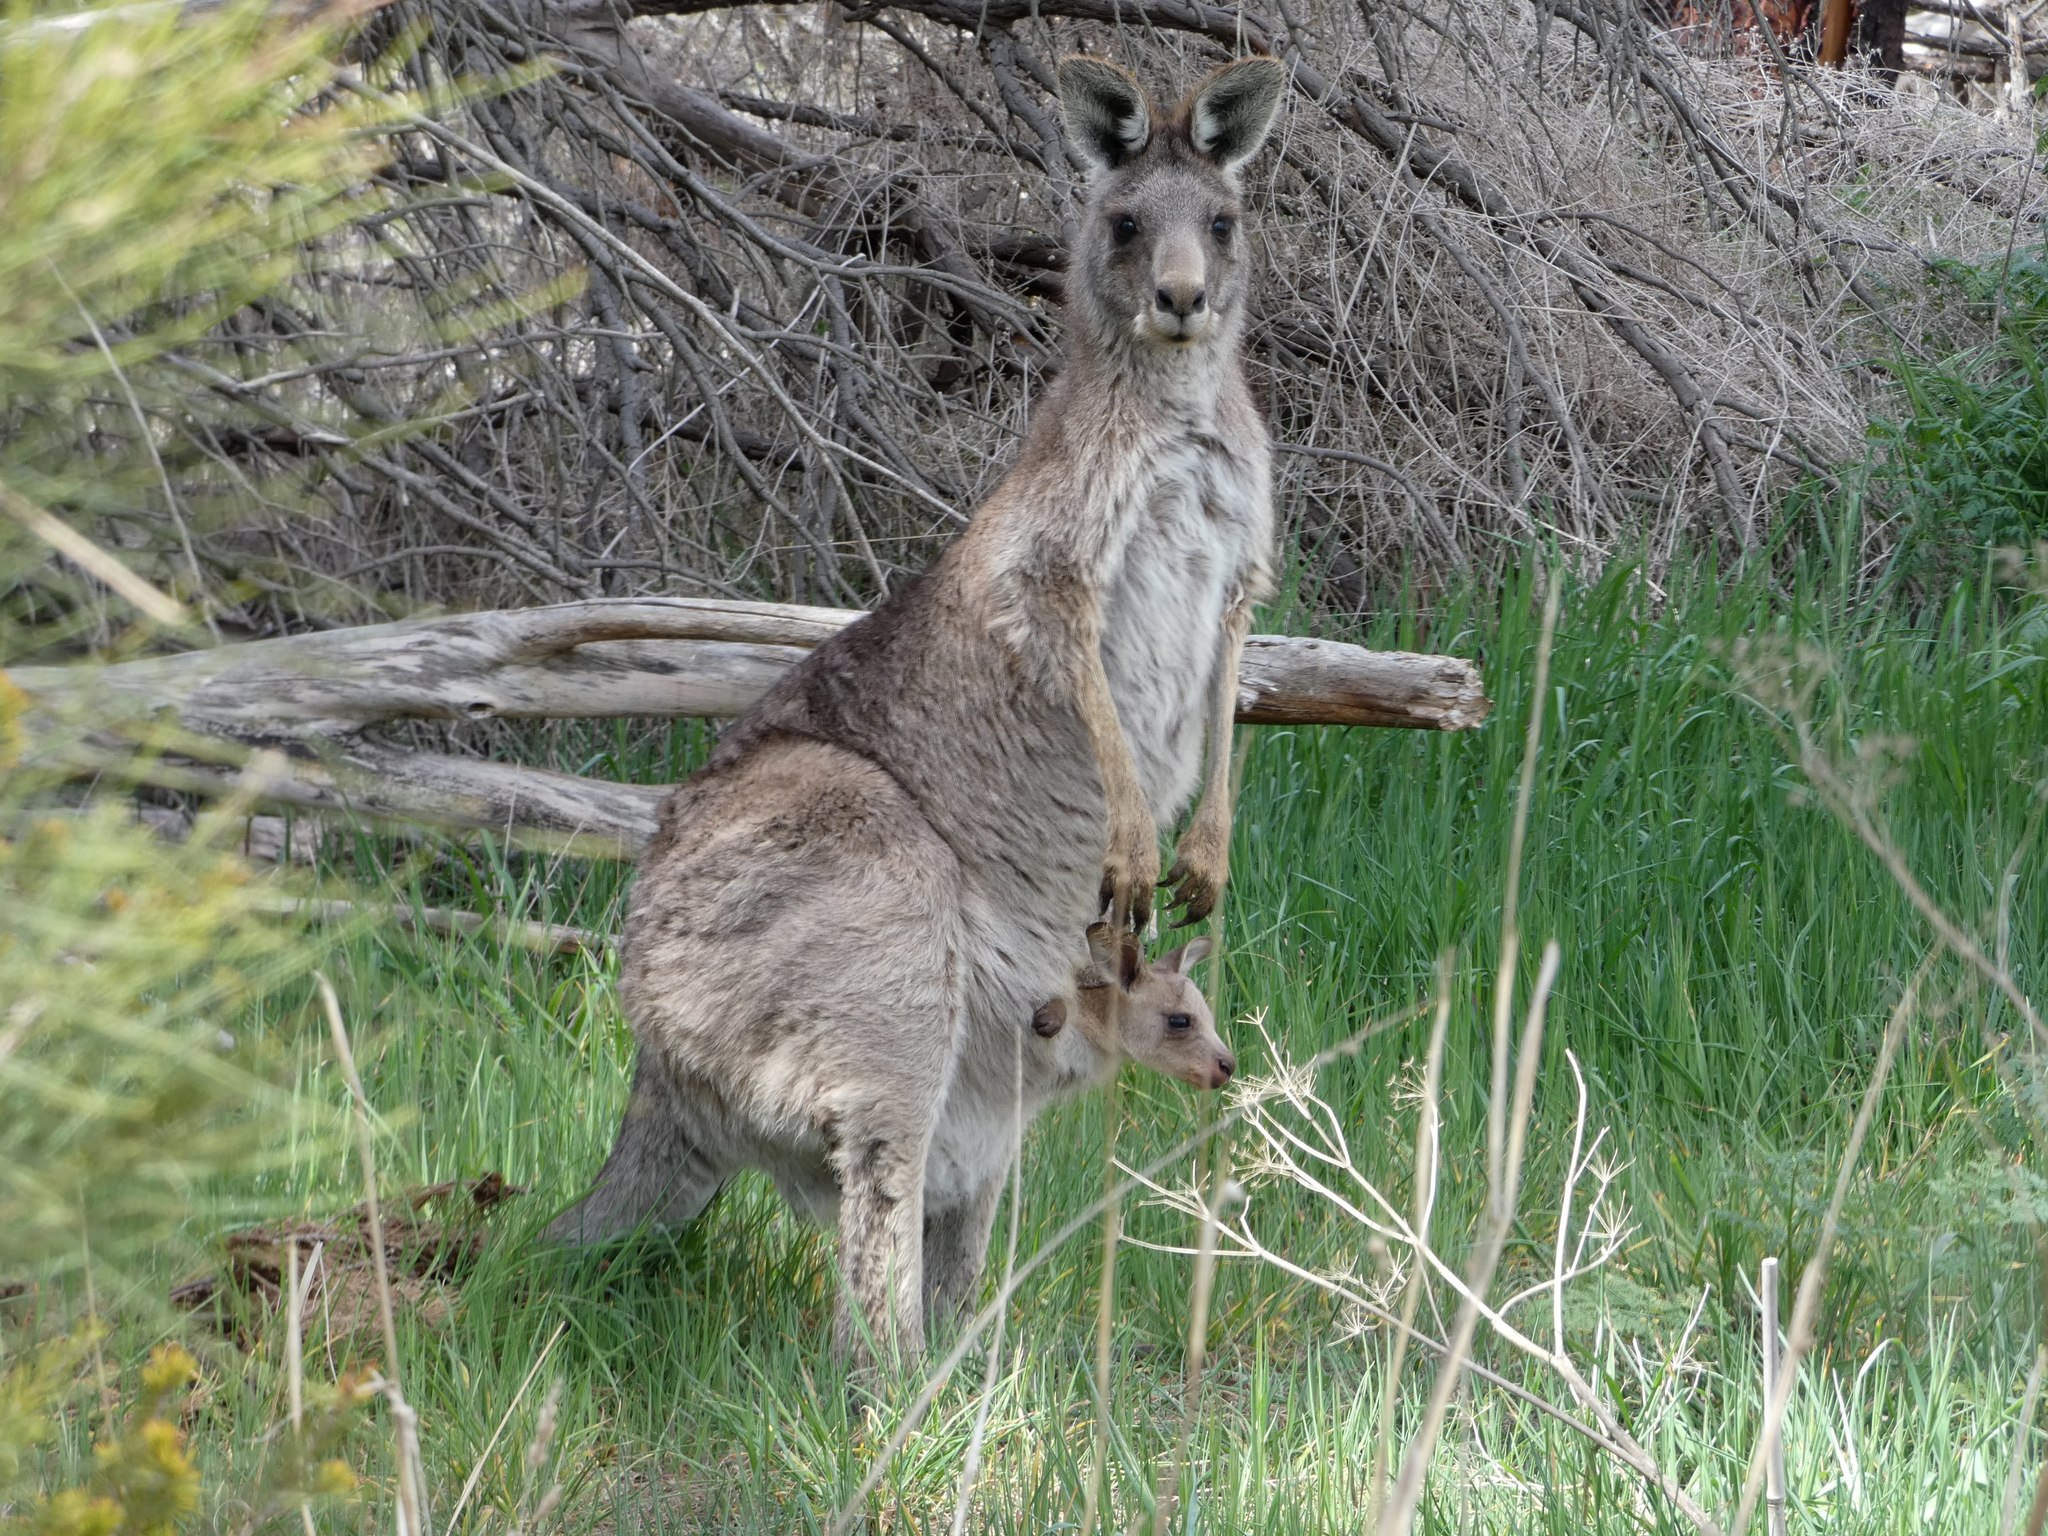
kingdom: Animalia
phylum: Chordata
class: Mammalia
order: Diprotodontia
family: Macropodidae
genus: Macropus
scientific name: Macropus giganteus
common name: Eastern grey kangaroo
